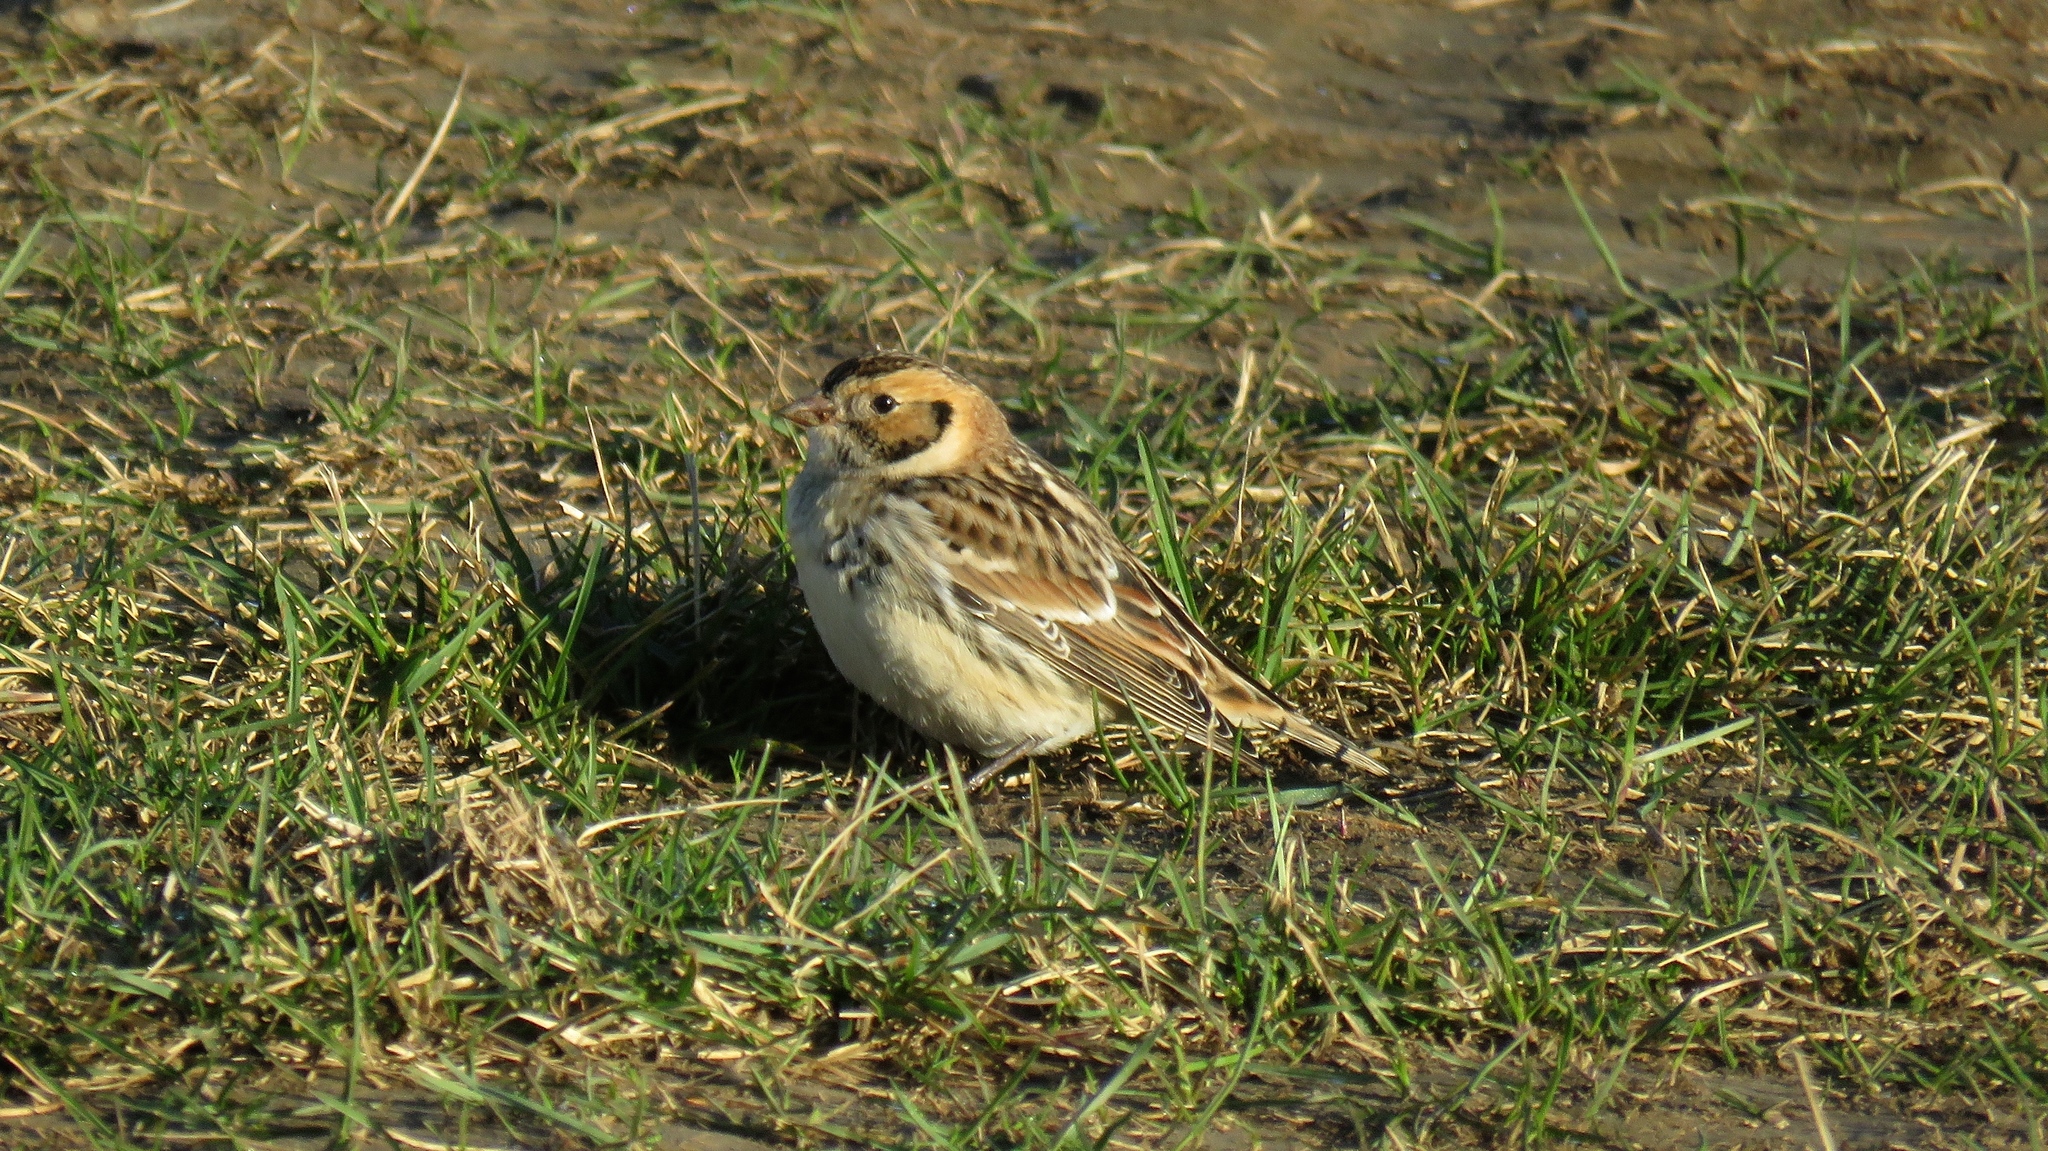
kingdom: Animalia
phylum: Chordata
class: Aves
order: Passeriformes
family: Calcariidae
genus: Calcarius
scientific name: Calcarius lapponicus
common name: Lapland longspur
